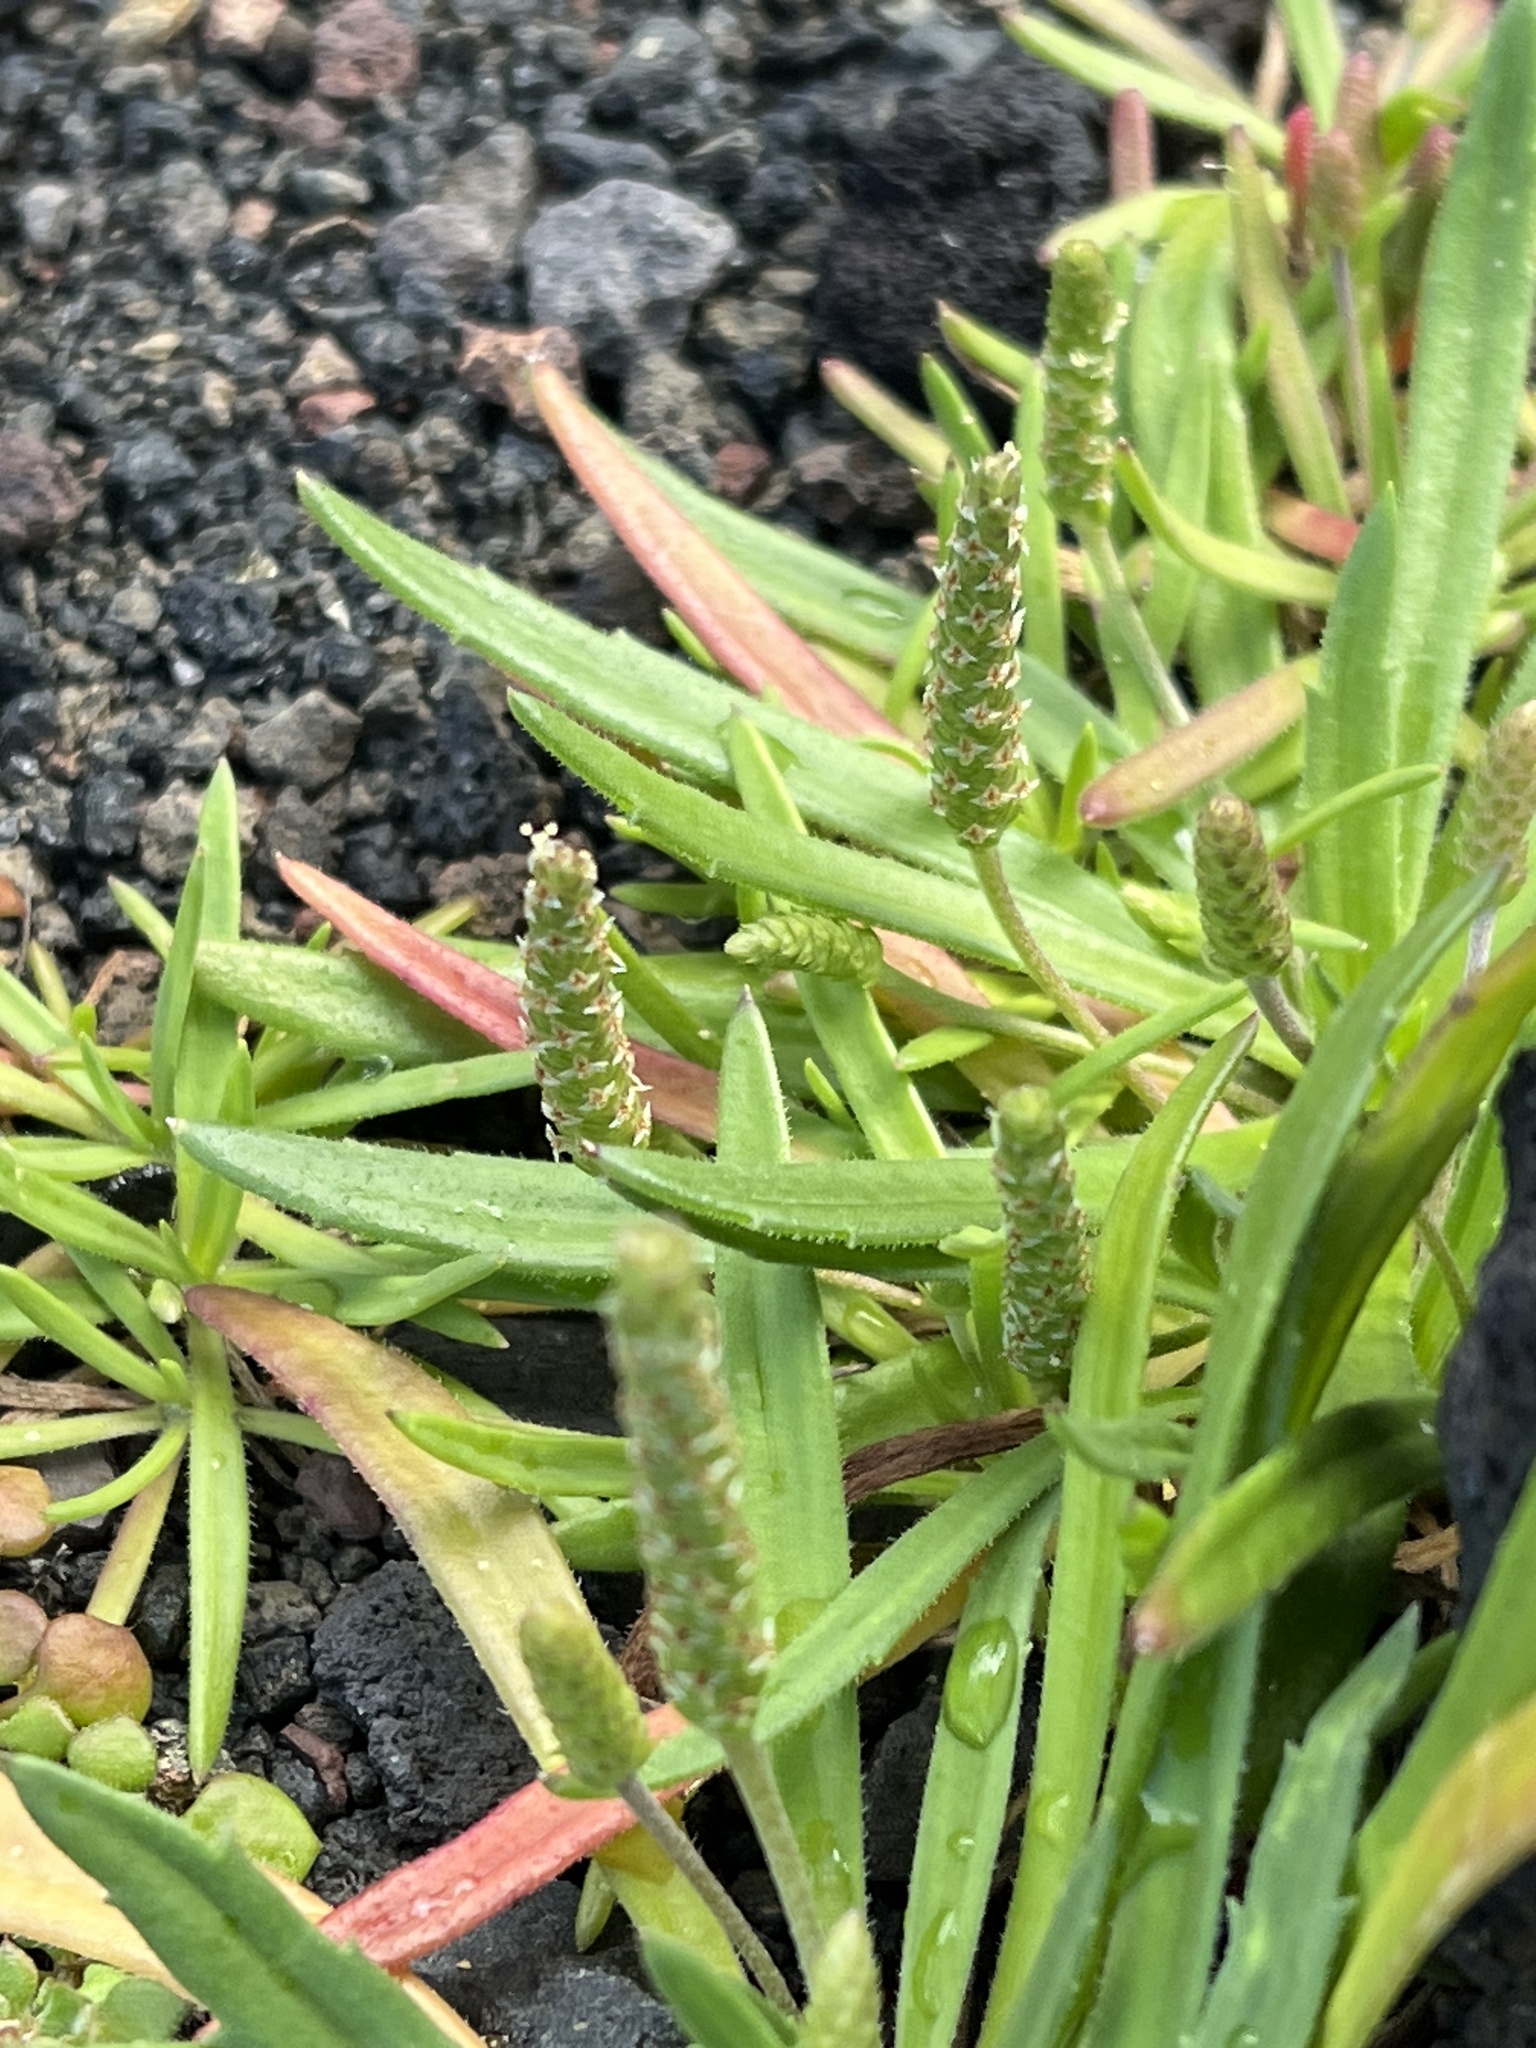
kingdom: Plantae
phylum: Tracheophyta
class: Magnoliopsida
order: Lamiales
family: Plantaginaceae
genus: Plantago
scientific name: Plantago coronopus
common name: Buck's-horn plantain
